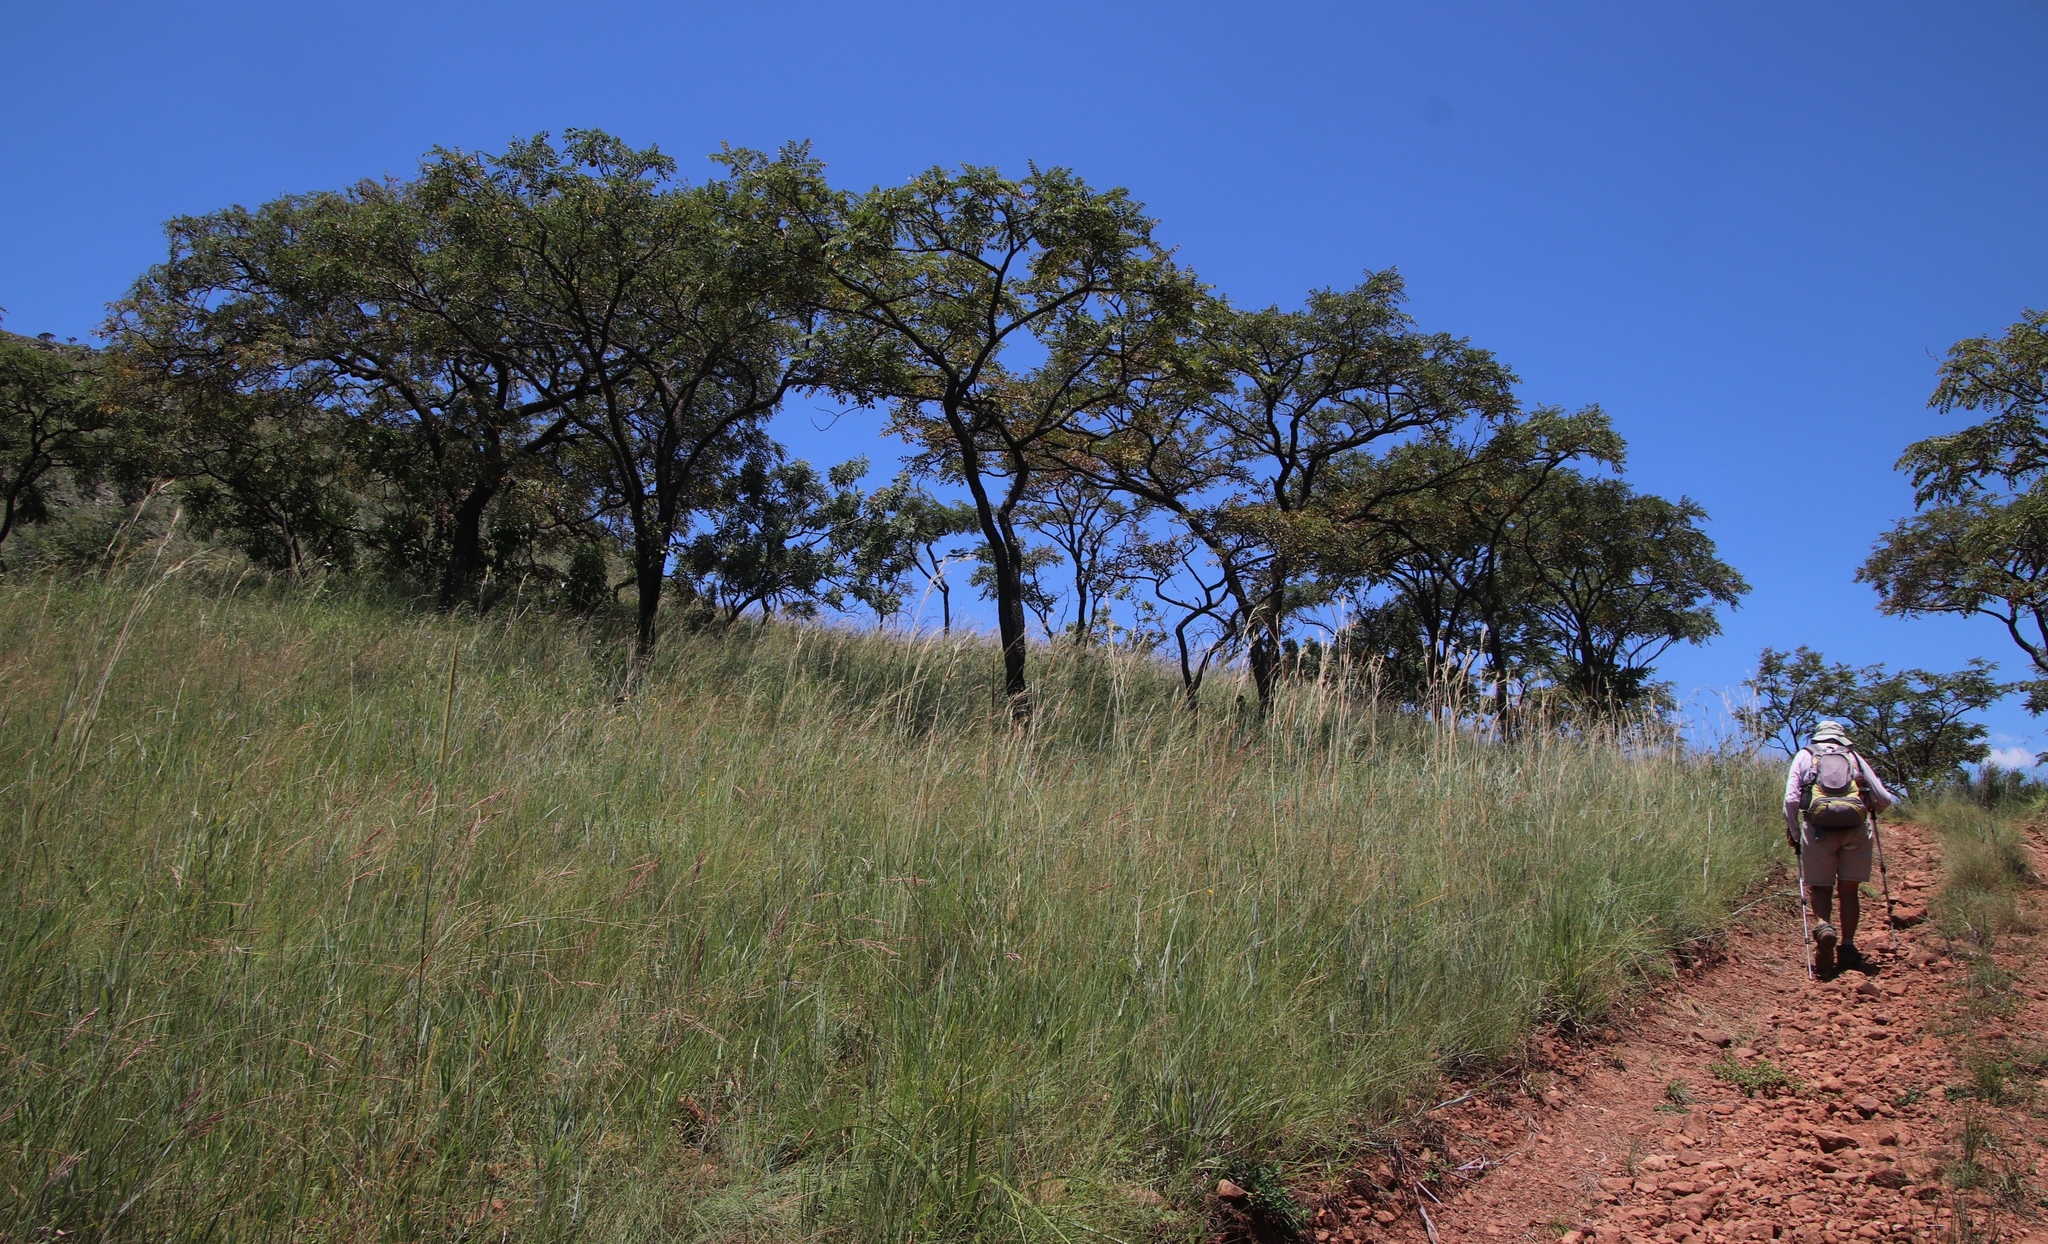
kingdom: Plantae
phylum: Tracheophyta
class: Magnoliopsida
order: Fabales
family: Fabaceae
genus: Pterocarpus
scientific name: Pterocarpus angolensis
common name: Bloodwood tree
